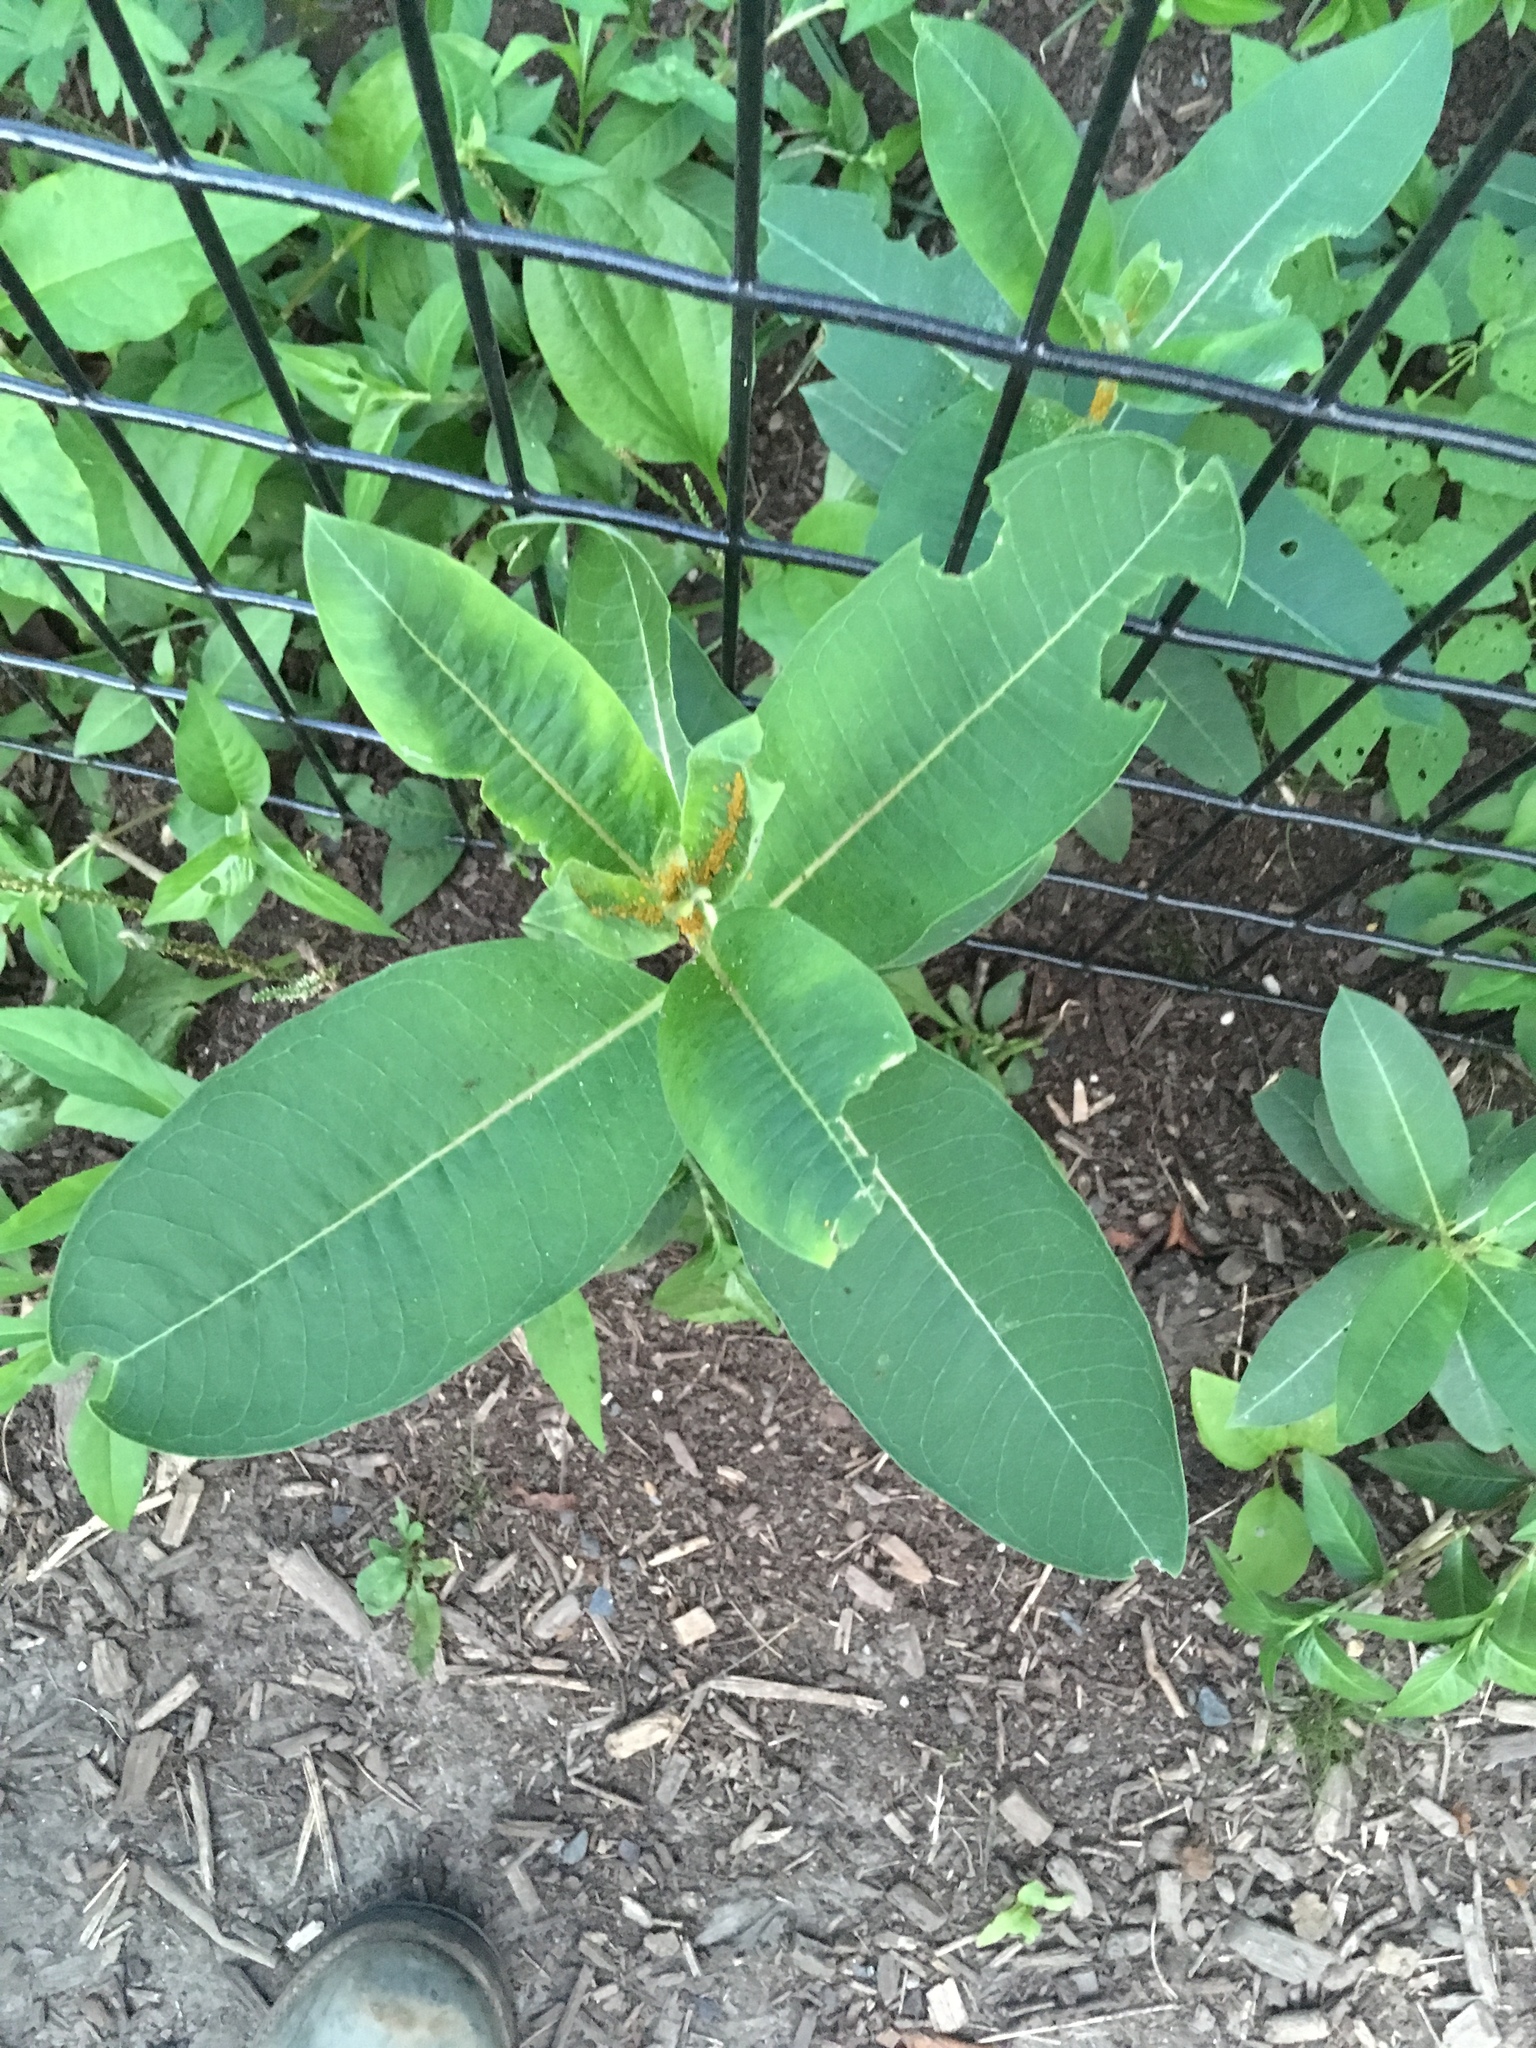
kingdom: Plantae
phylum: Tracheophyta
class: Magnoliopsida
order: Gentianales
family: Apocynaceae
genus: Asclepias
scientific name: Asclepias syriaca
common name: Common milkweed
